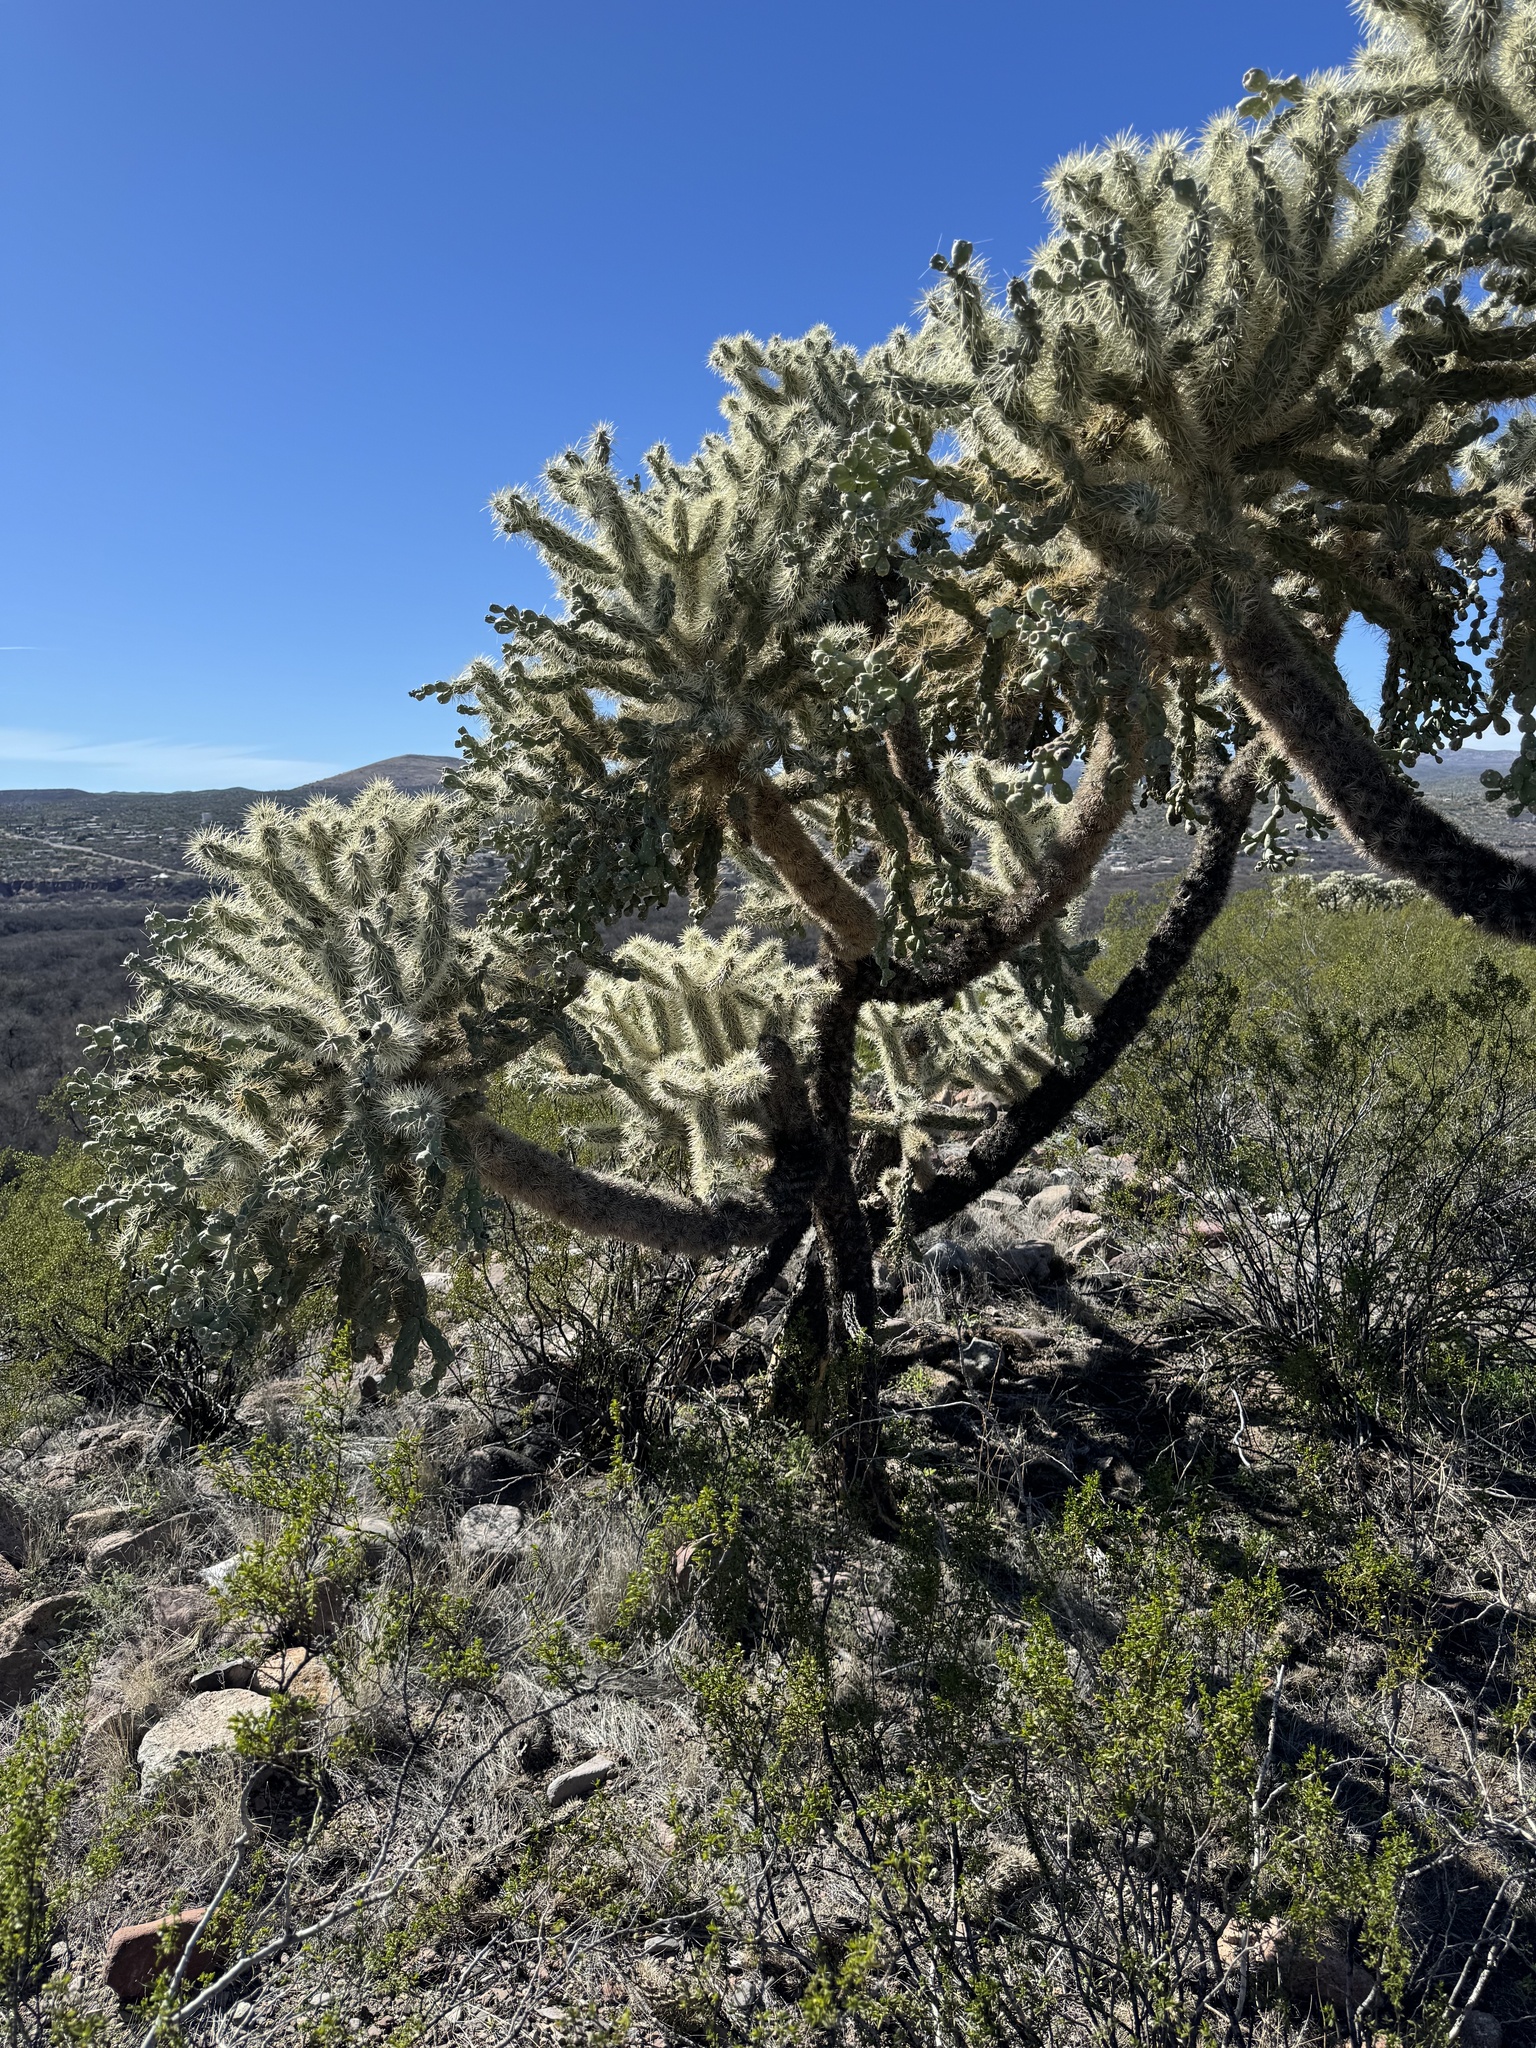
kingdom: Plantae
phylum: Tracheophyta
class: Magnoliopsida
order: Caryophyllales
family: Cactaceae
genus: Cylindropuntia
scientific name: Cylindropuntia fulgida
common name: Jumping cholla
